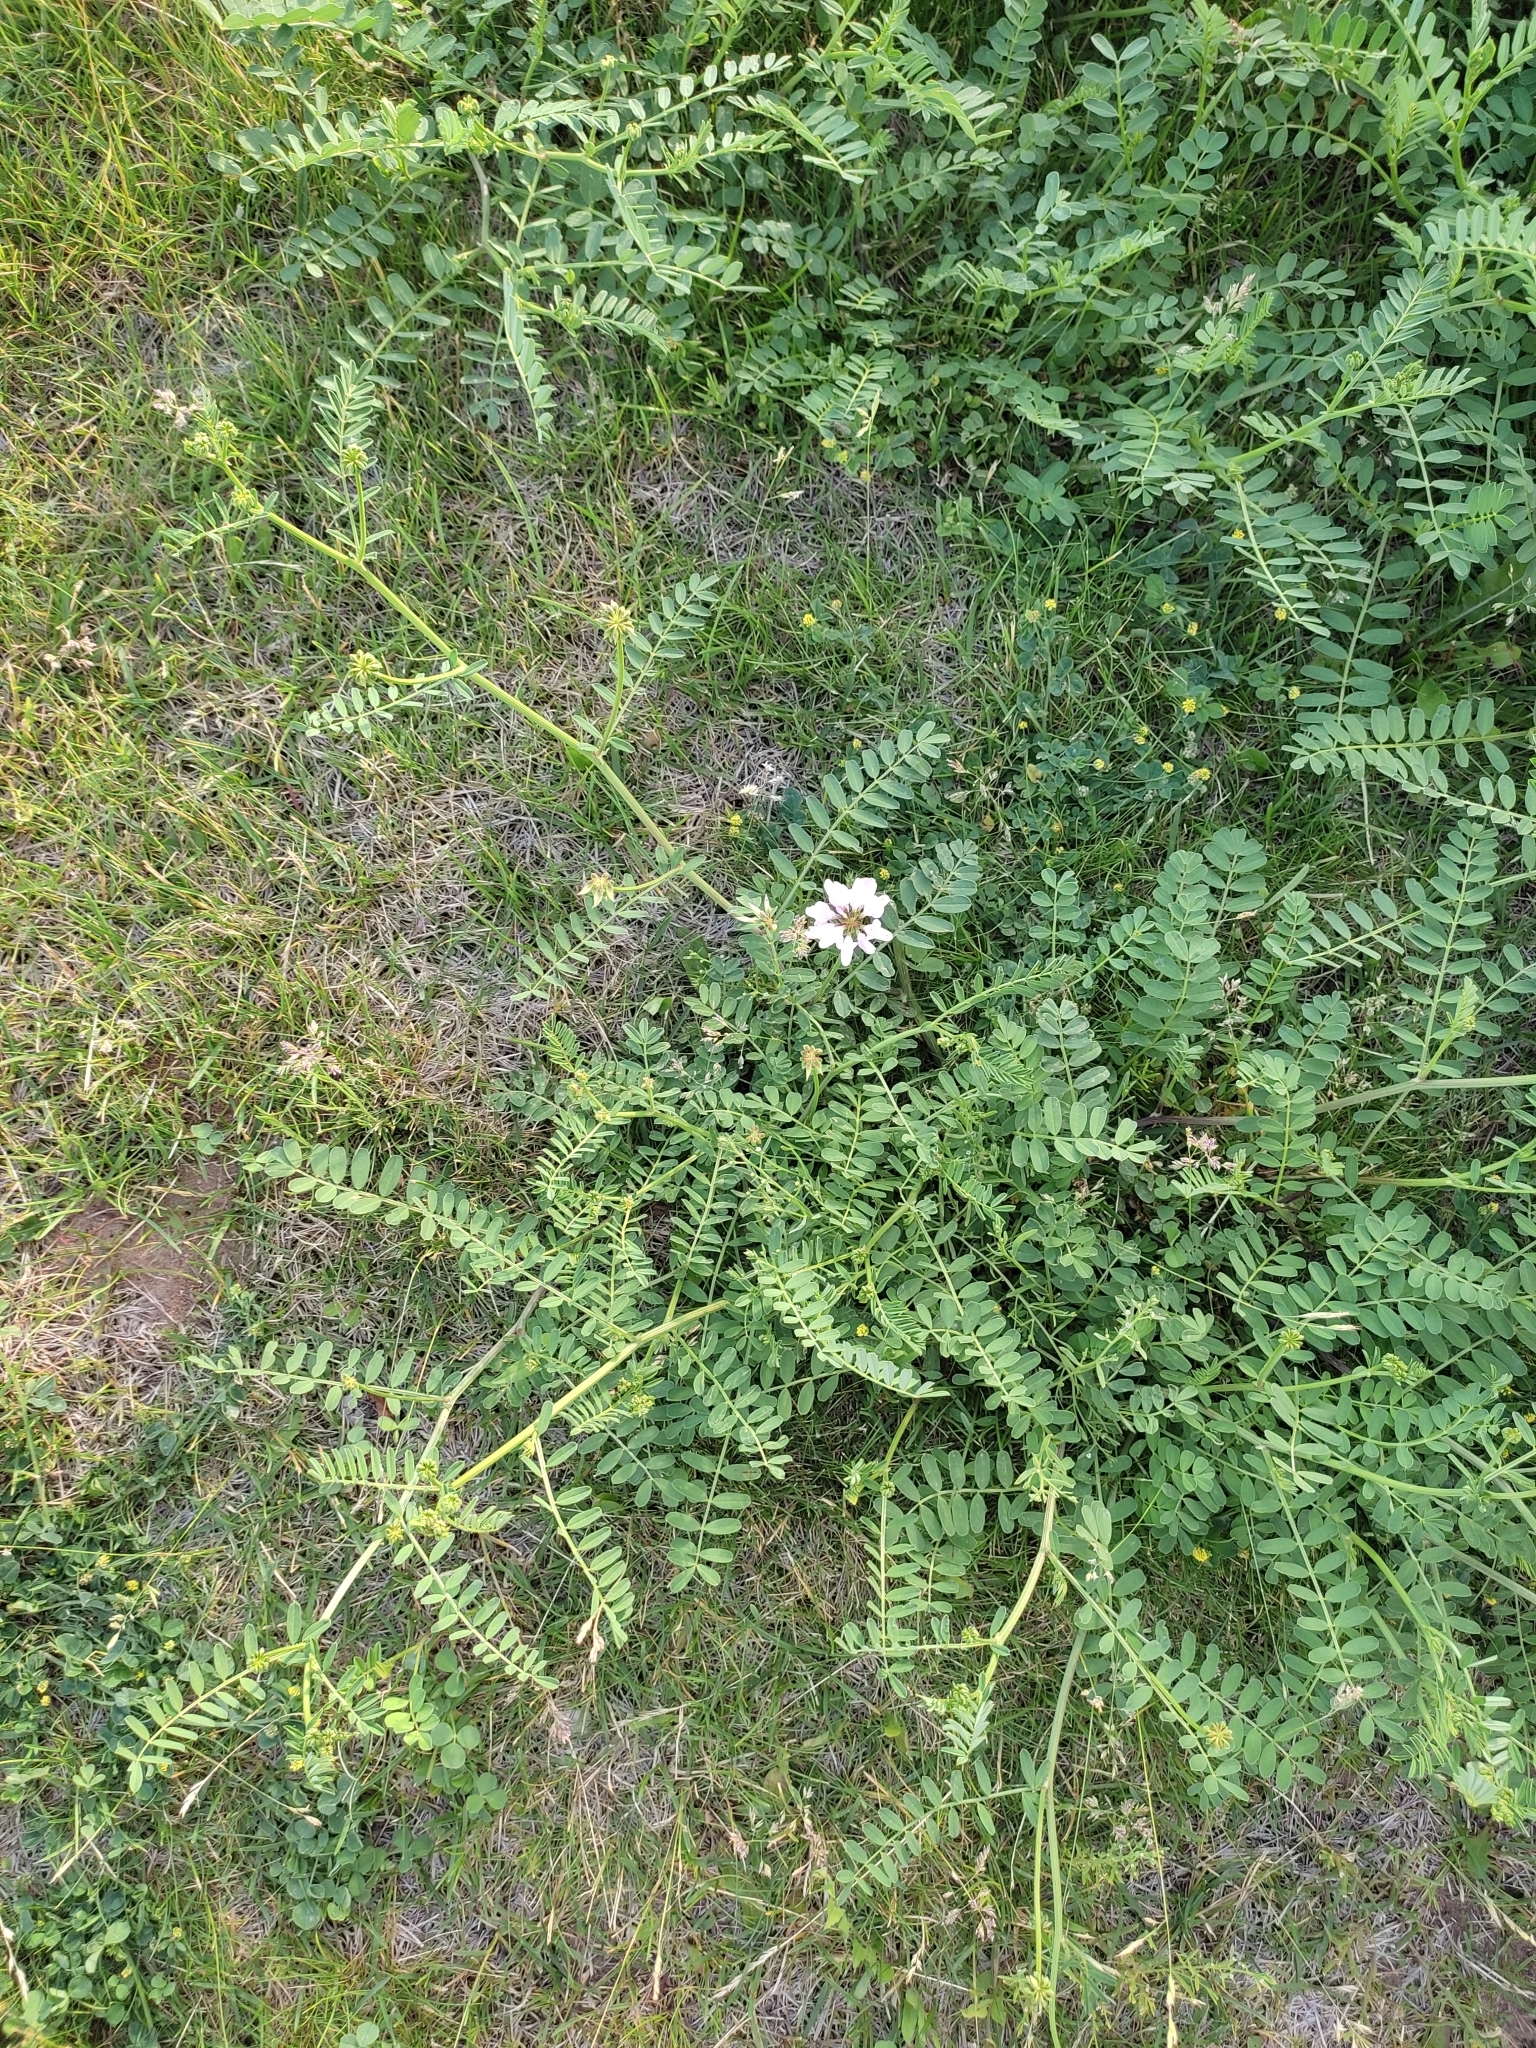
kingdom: Plantae
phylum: Tracheophyta
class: Magnoliopsida
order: Fabales
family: Fabaceae
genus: Coronilla
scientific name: Coronilla varia
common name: Crownvetch
